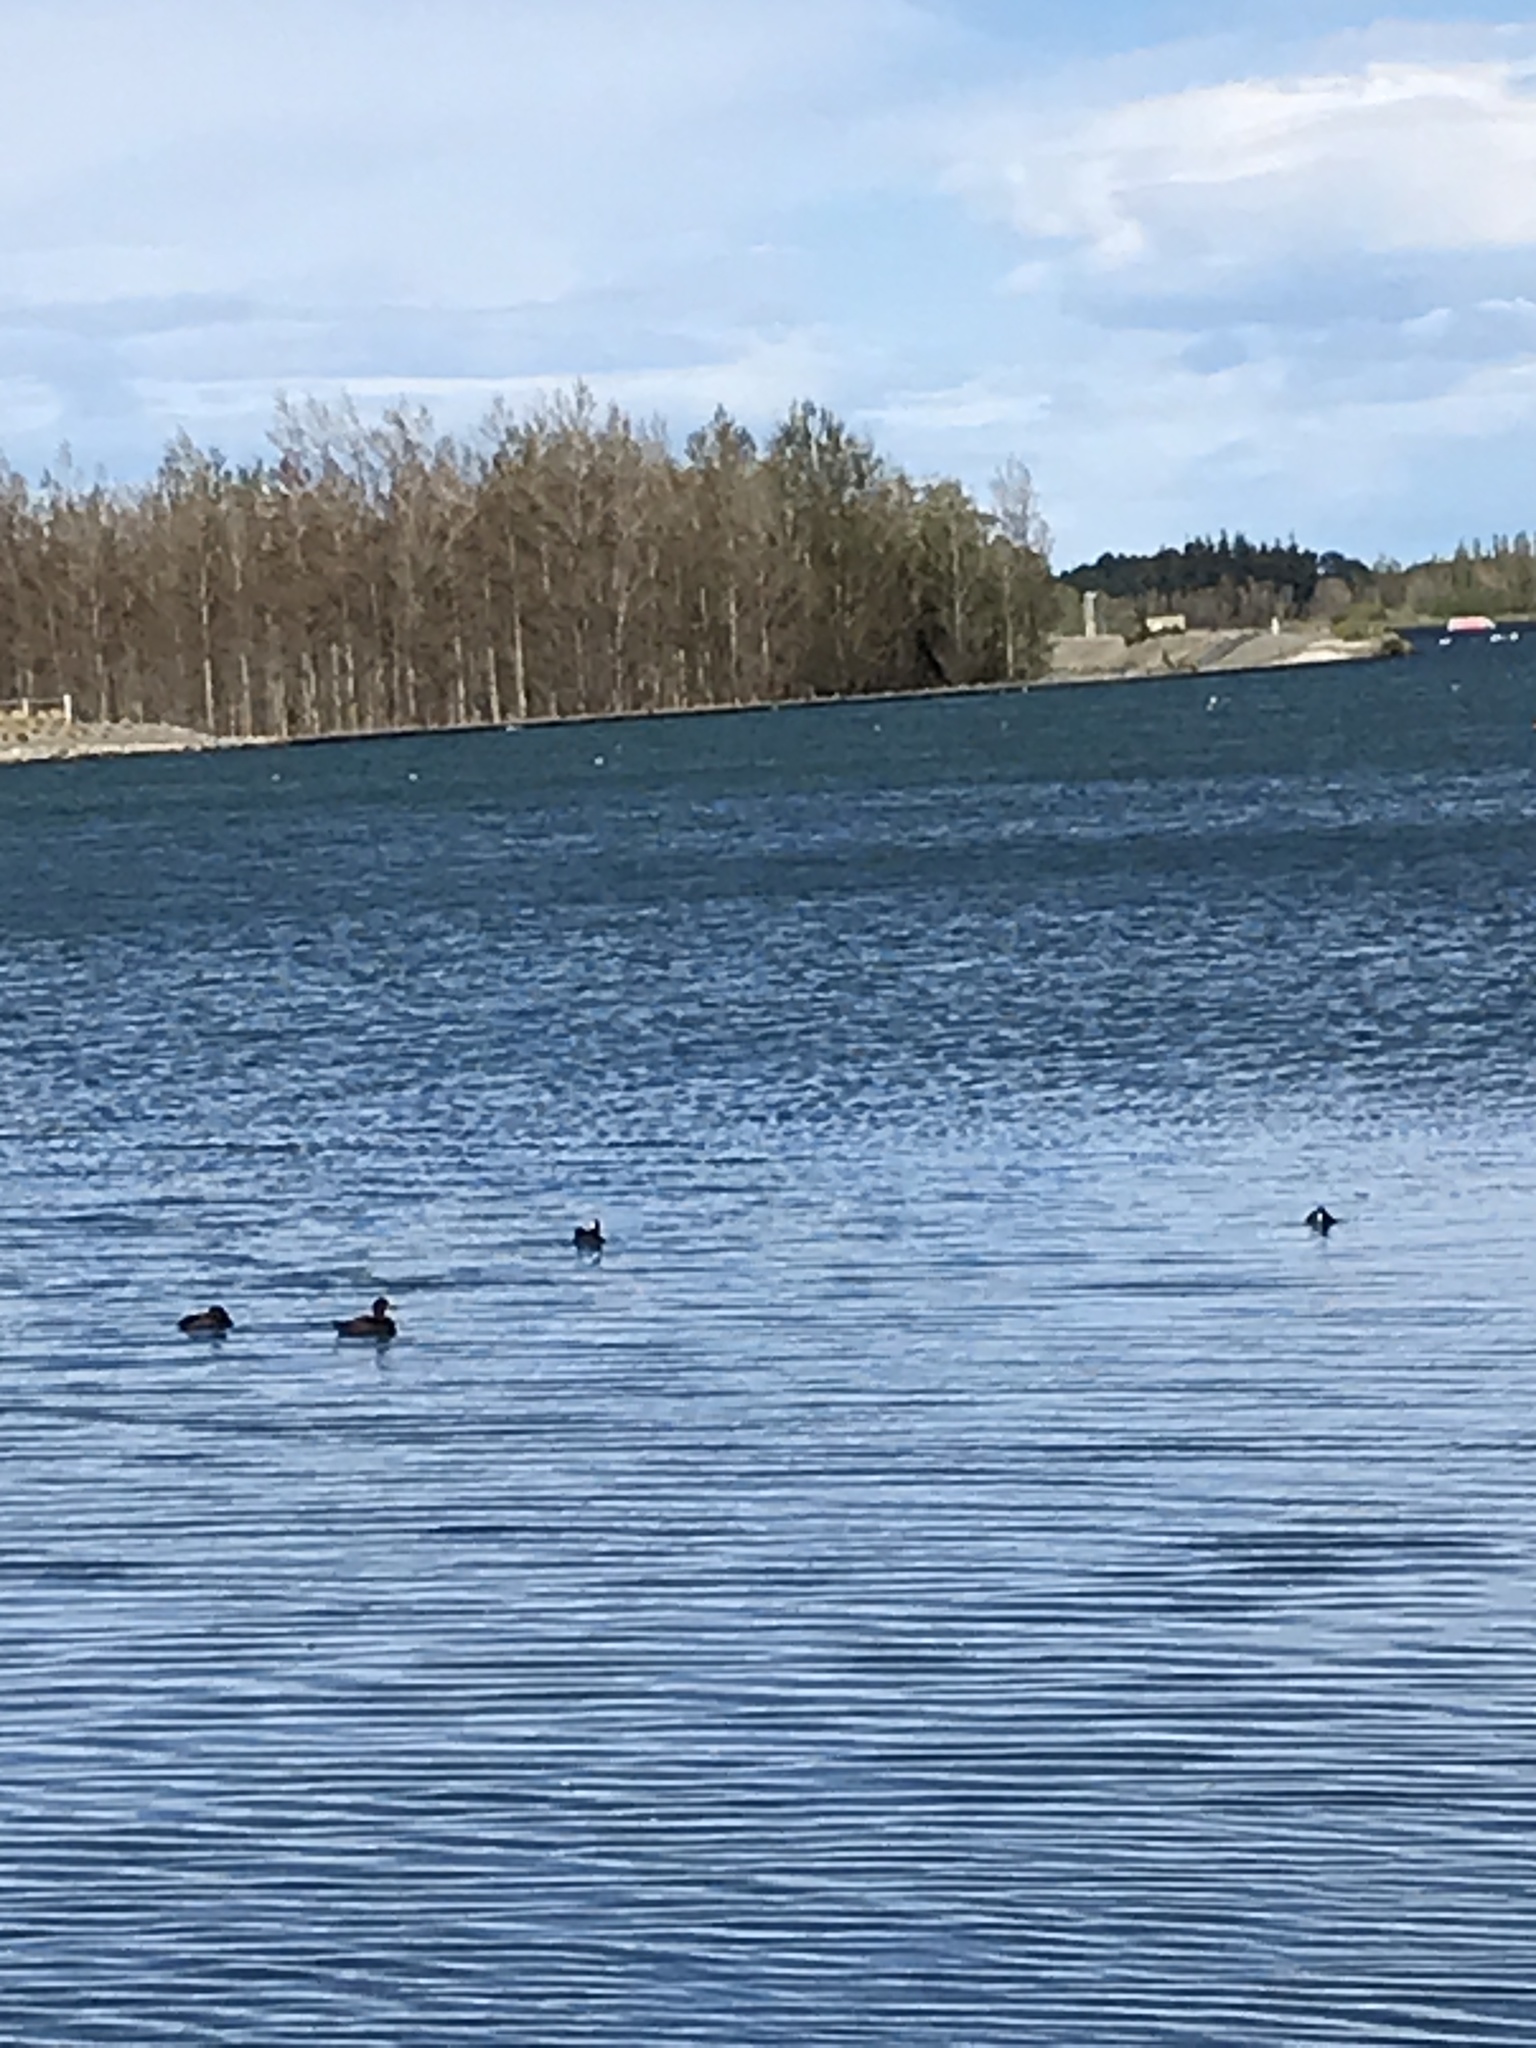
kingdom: Animalia
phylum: Chordata
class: Aves
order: Anseriformes
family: Anatidae
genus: Aythya
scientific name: Aythya novaeseelandiae
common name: New zealand scaup
